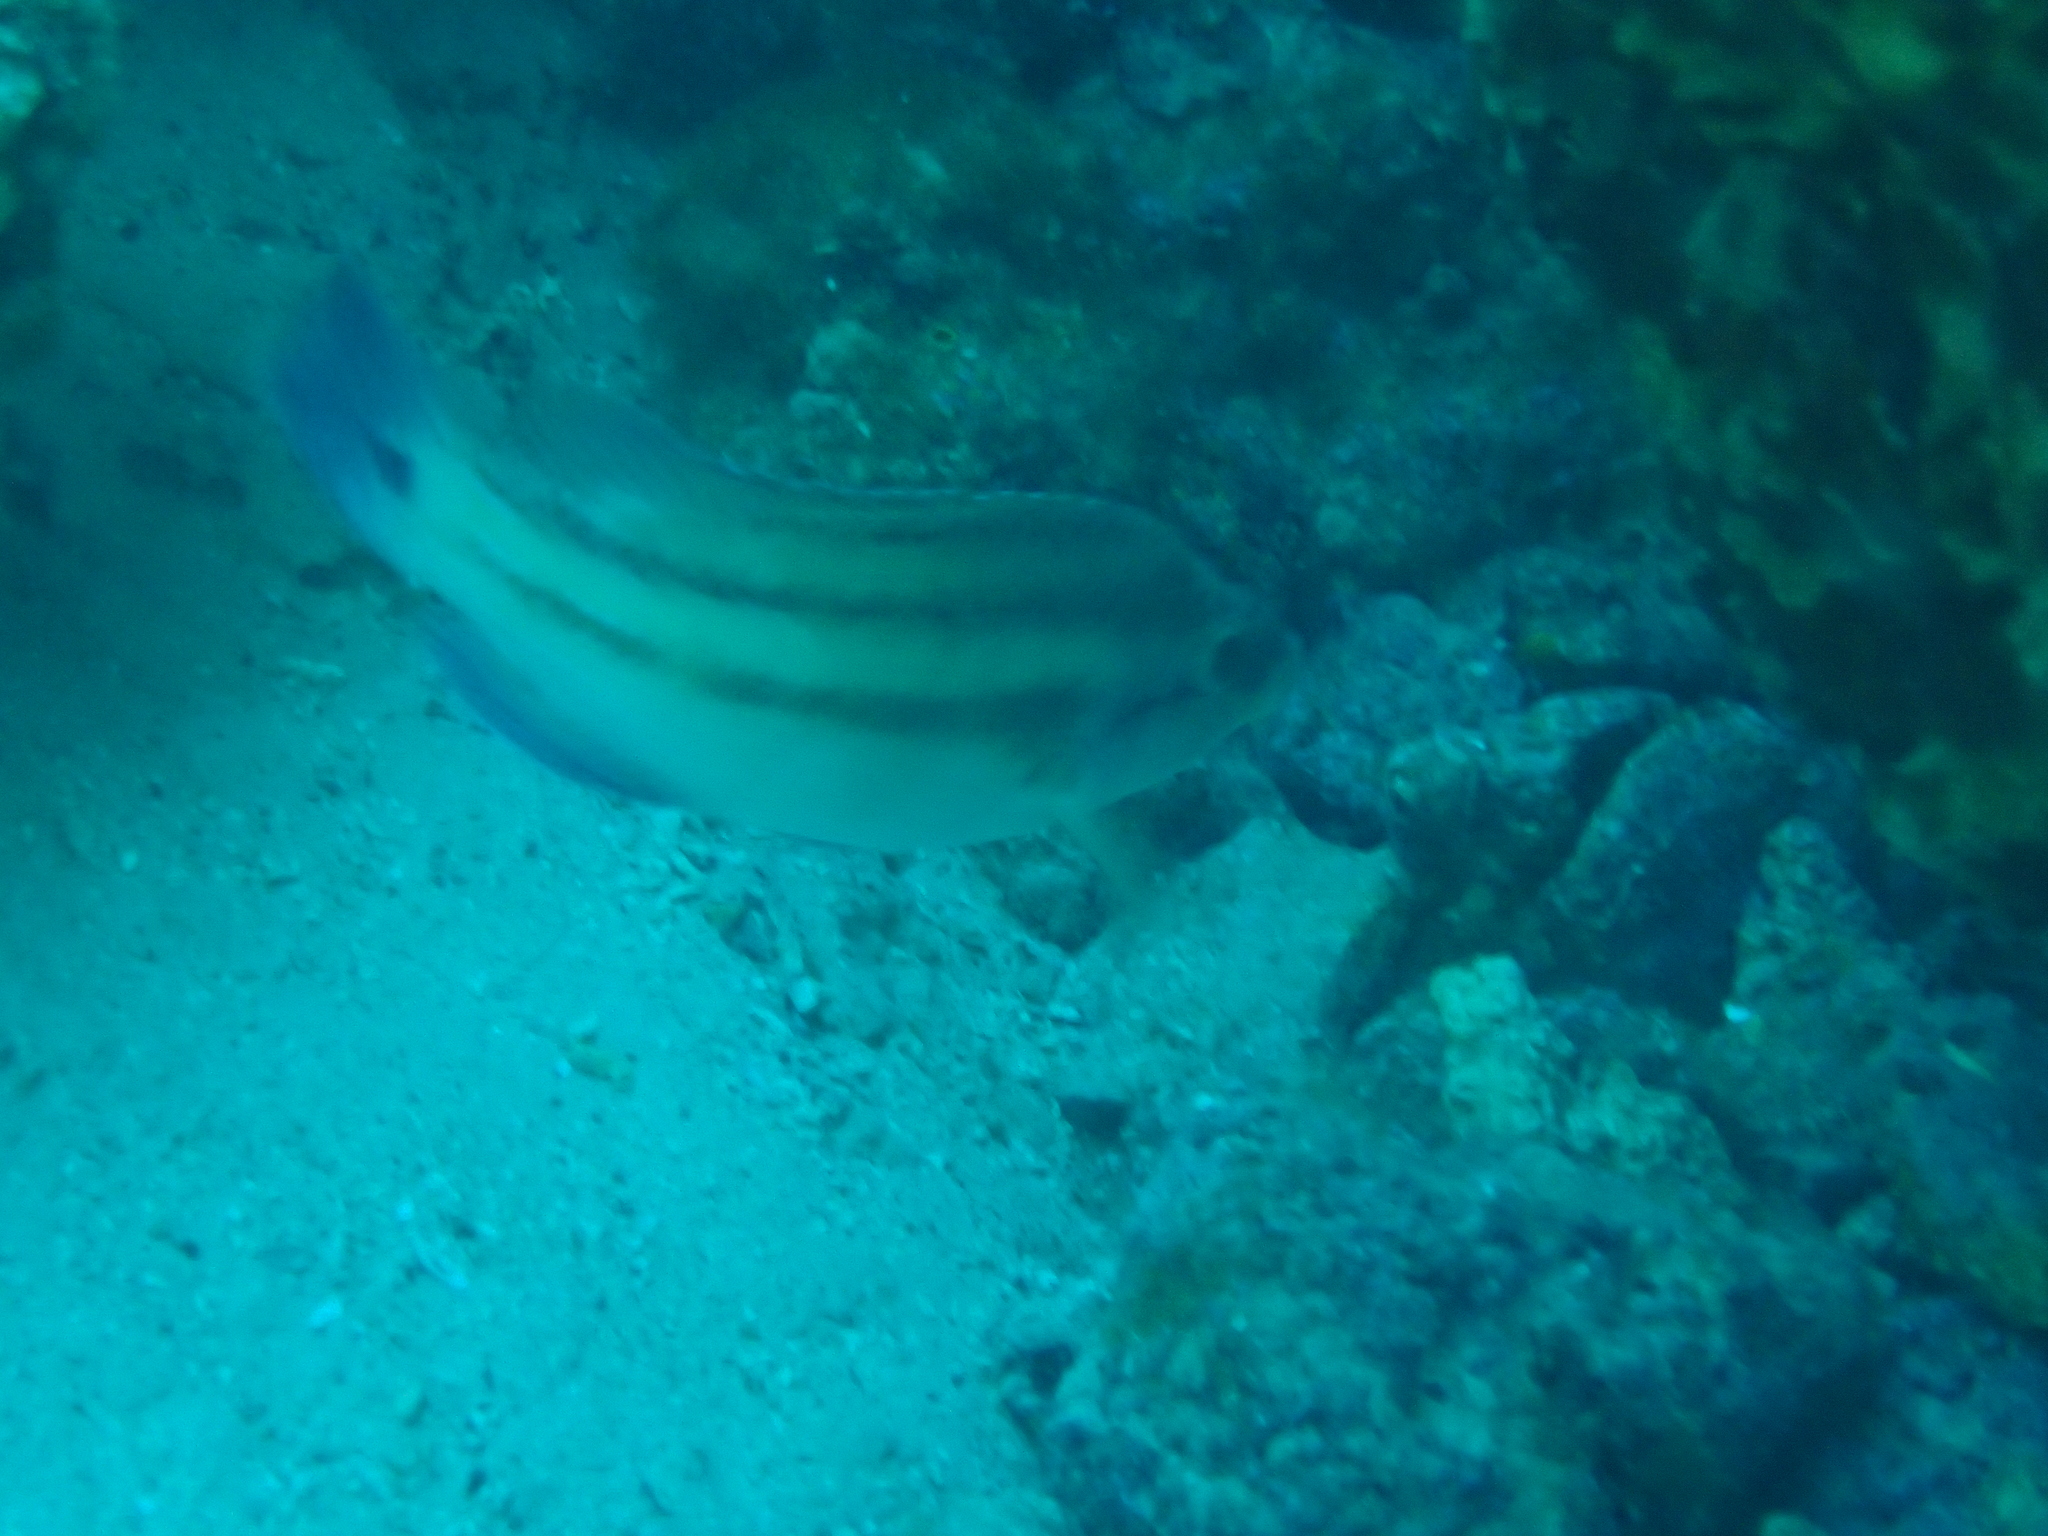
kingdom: Animalia
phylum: Chordata
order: Perciformes
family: Labridae
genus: Symphodus
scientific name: Symphodus tinca
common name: Peacock wrasse
